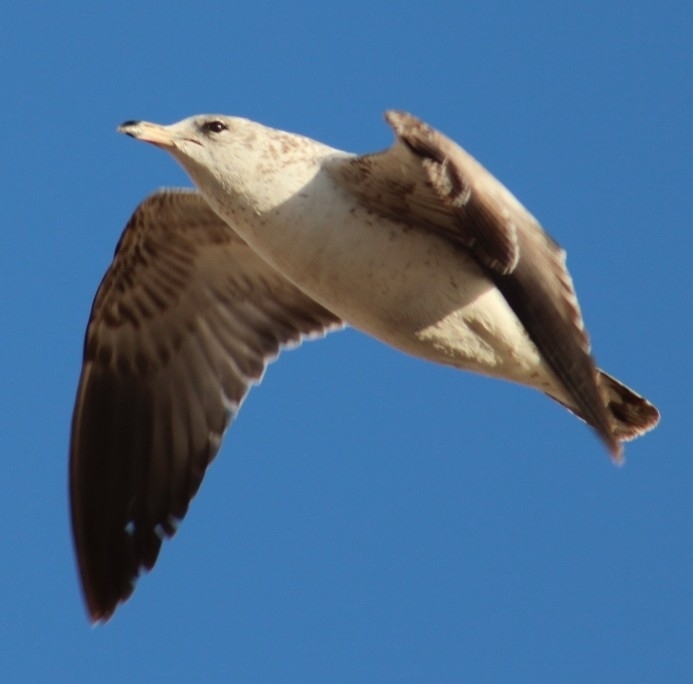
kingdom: Animalia
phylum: Chordata
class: Aves
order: Charadriiformes
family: Laridae
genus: Larus
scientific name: Larus californicus
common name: California gull
